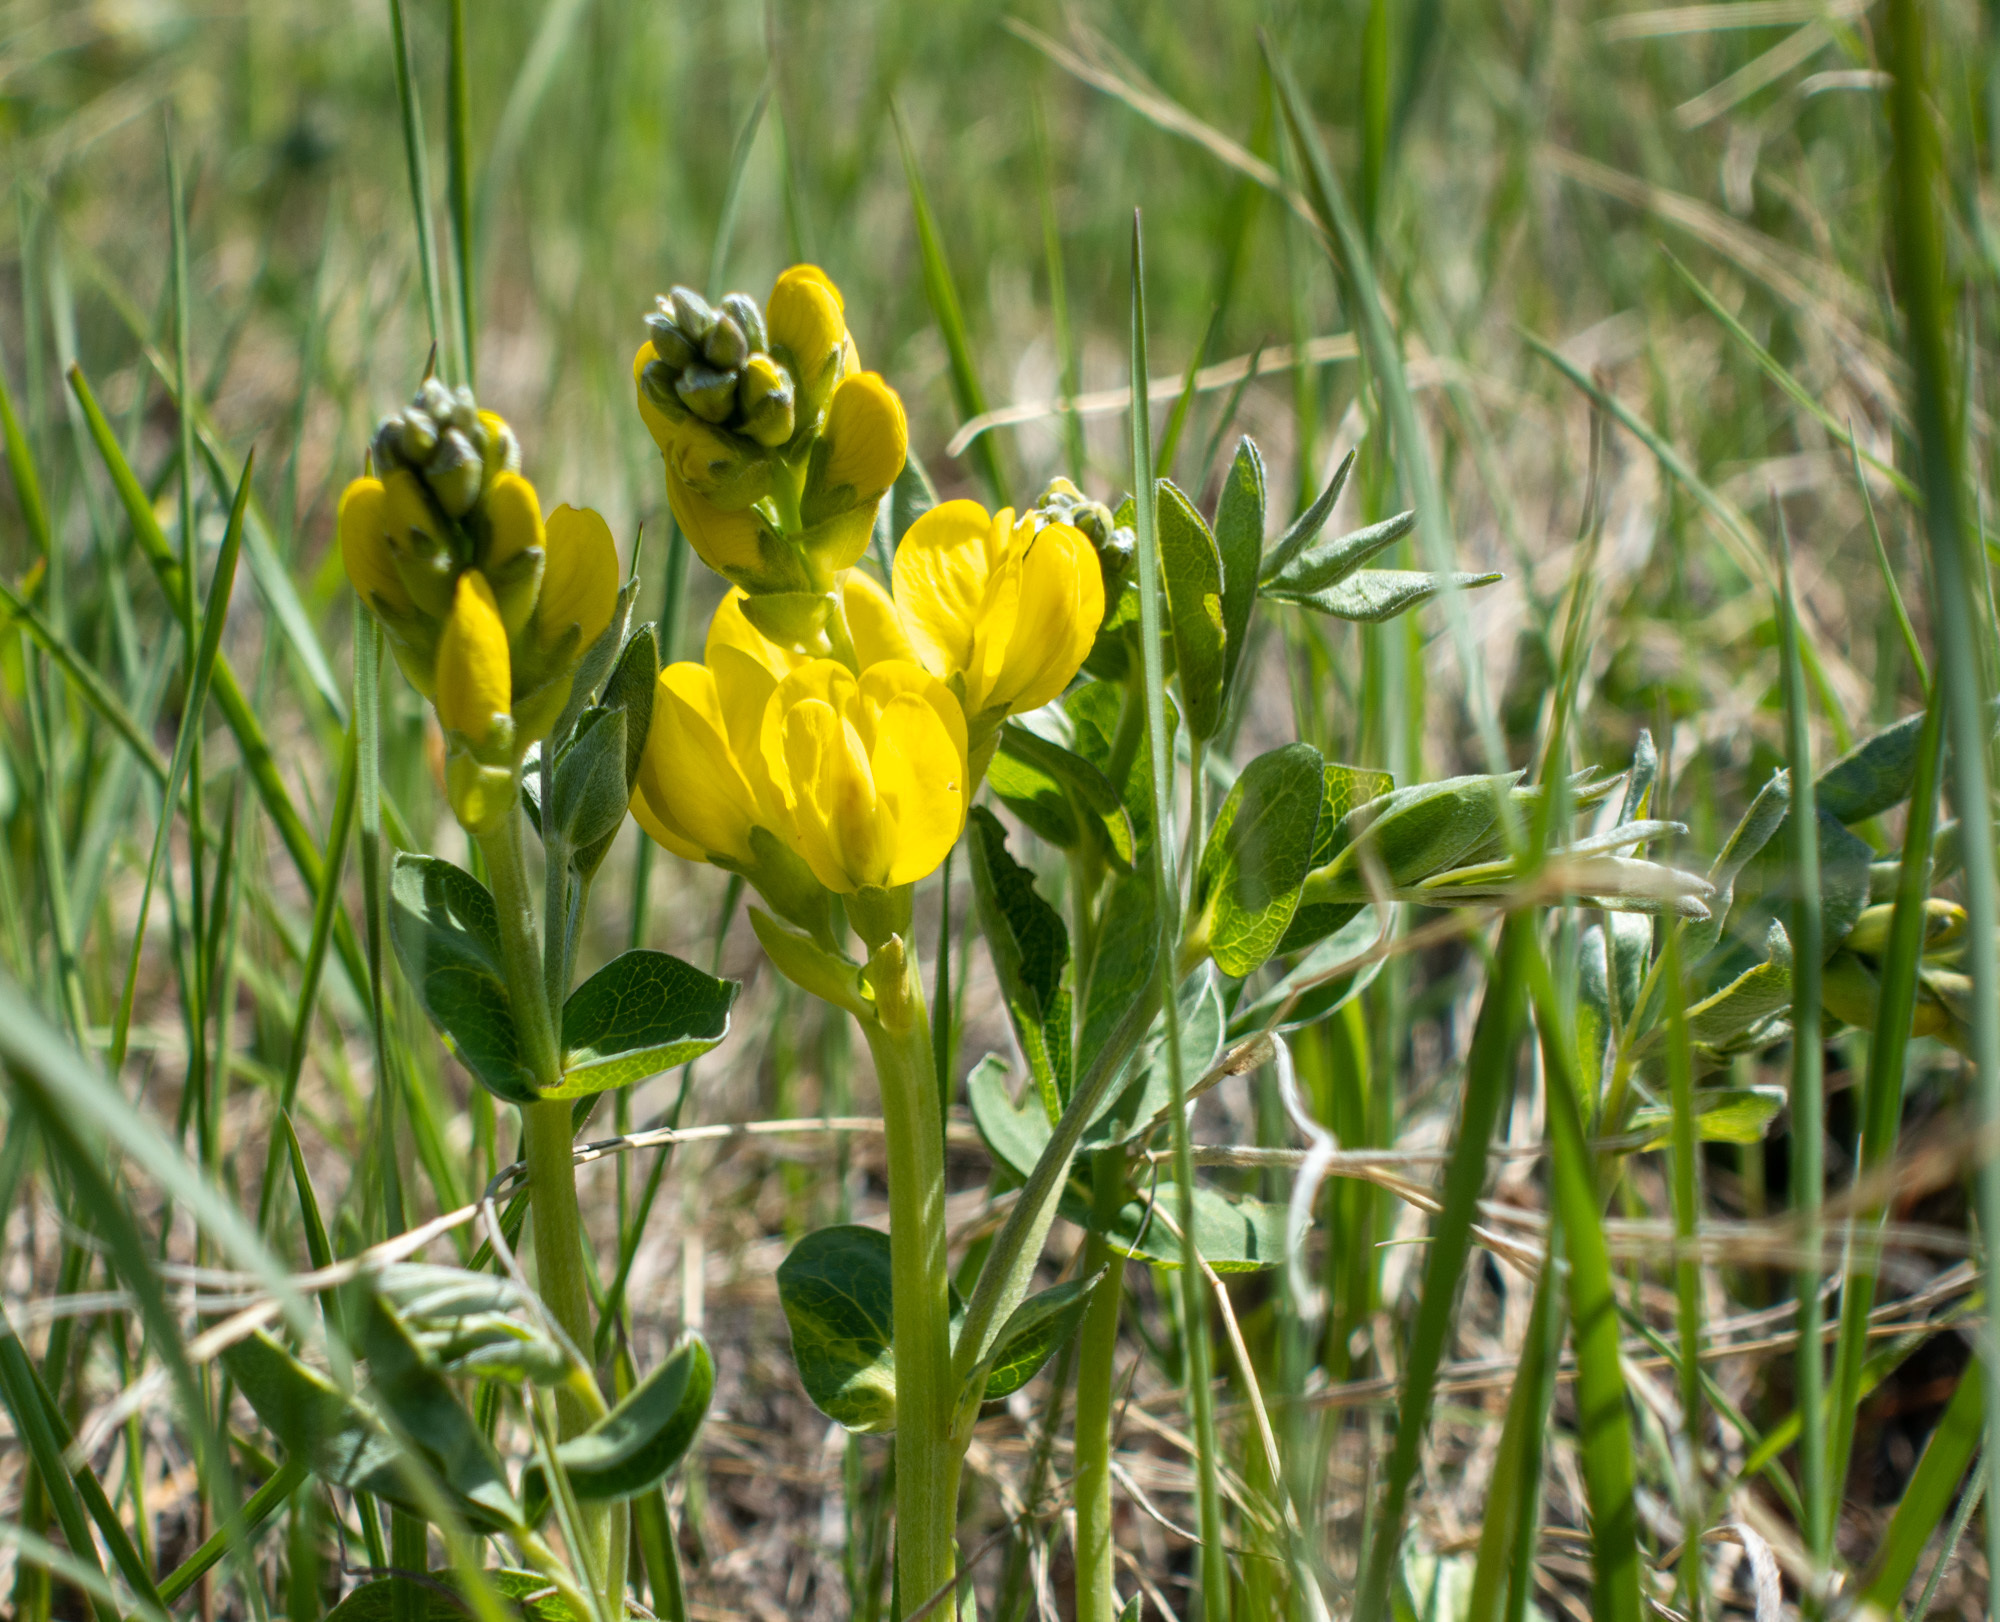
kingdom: Plantae
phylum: Tracheophyta
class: Magnoliopsida
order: Fabales
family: Fabaceae
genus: Thermopsis
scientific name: Thermopsis rhombifolia
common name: Circle-pod-pea
